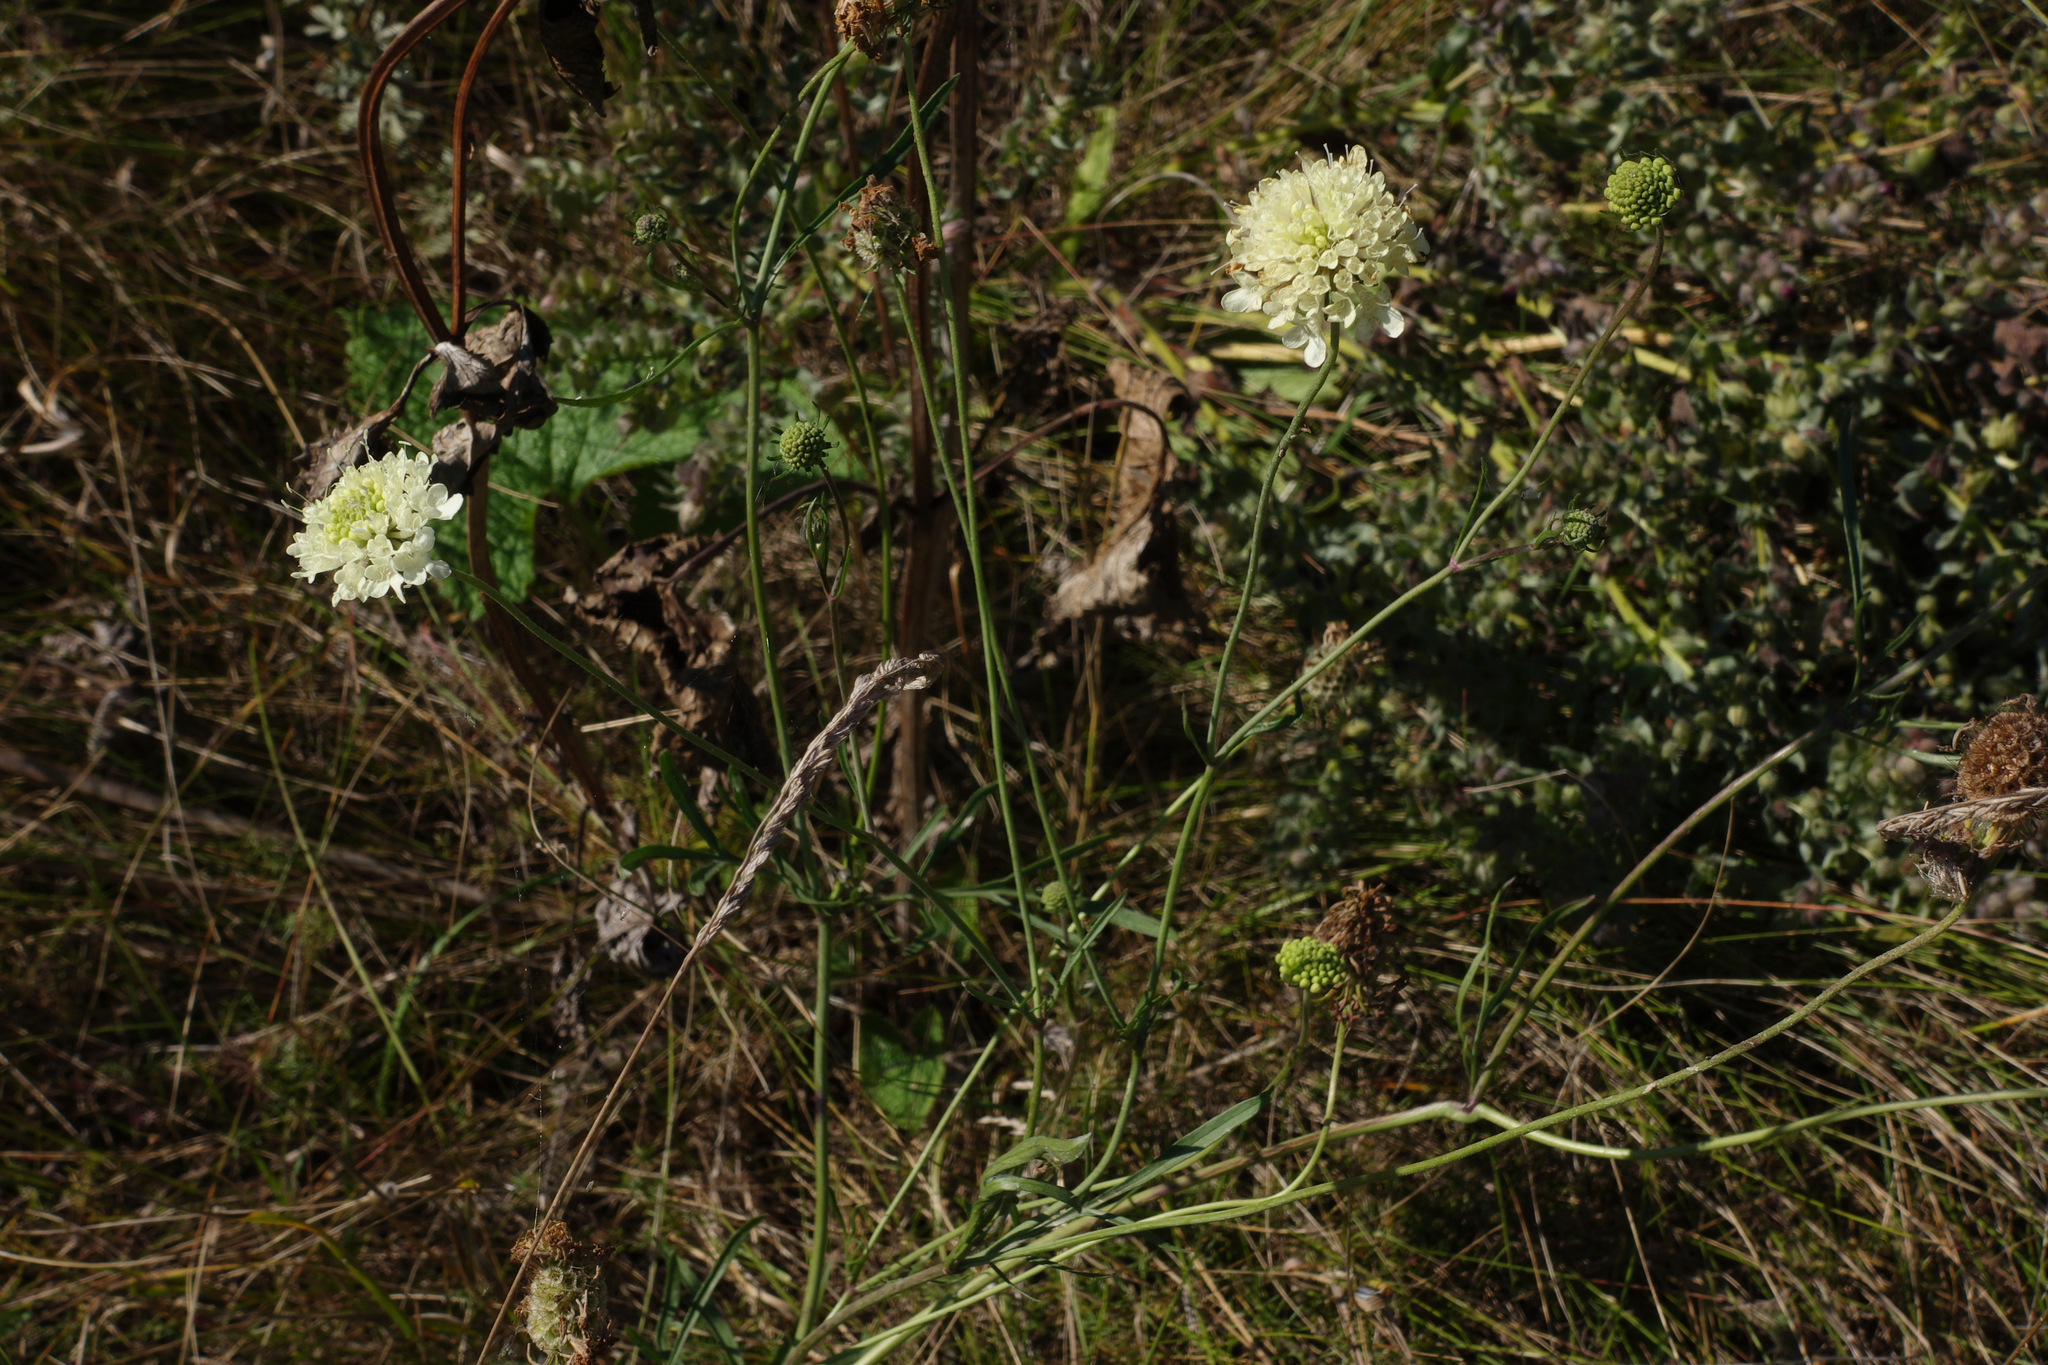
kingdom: Plantae
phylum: Tracheophyta
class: Magnoliopsida
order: Dipsacales
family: Caprifoliaceae
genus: Scabiosa
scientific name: Scabiosa ochroleuca
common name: Cream pincushions
